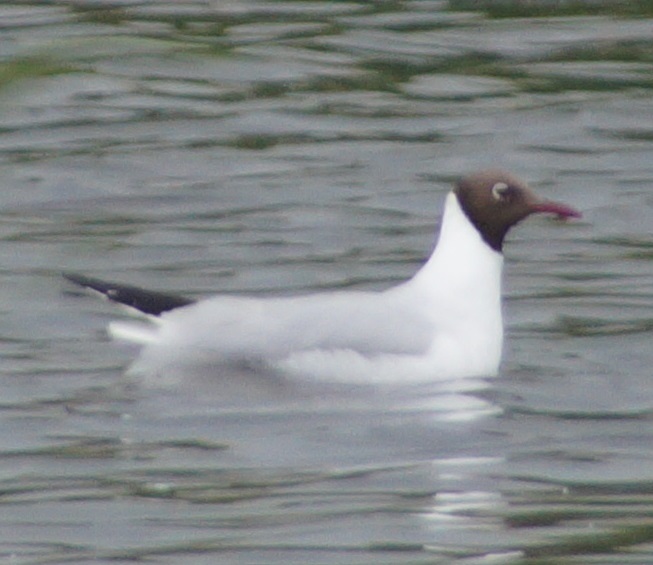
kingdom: Animalia
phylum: Chordata
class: Aves
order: Charadriiformes
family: Laridae
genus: Chroicocephalus
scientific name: Chroicocephalus ridibundus
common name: Black-headed gull
